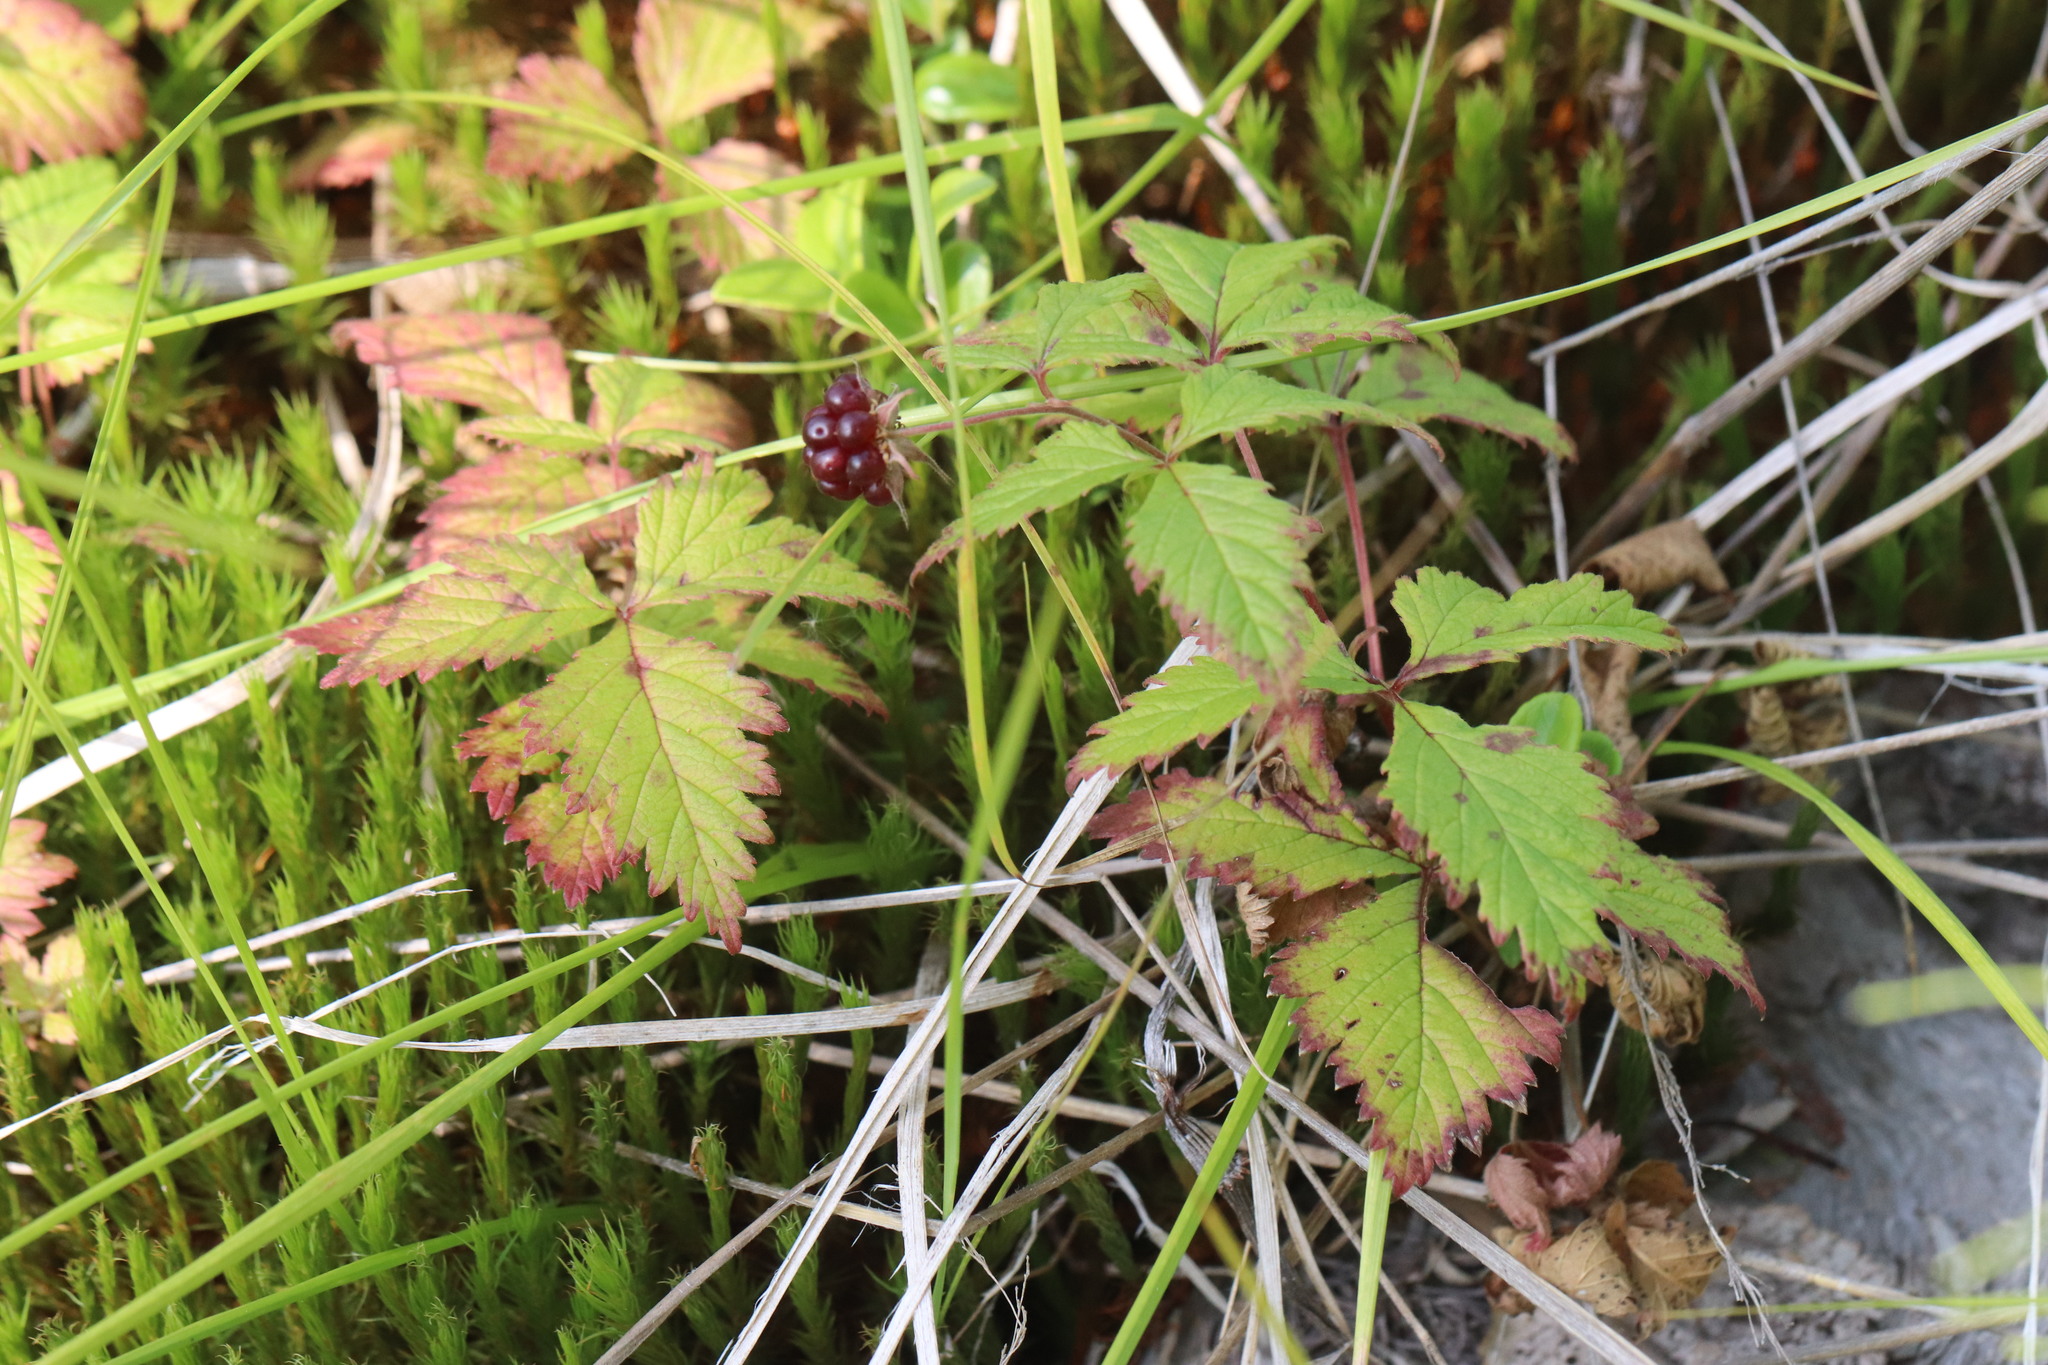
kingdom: Plantae
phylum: Tracheophyta
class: Magnoliopsida
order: Rosales
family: Rosaceae
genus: Rubus
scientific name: Rubus arcticus
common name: Arctic bramble
